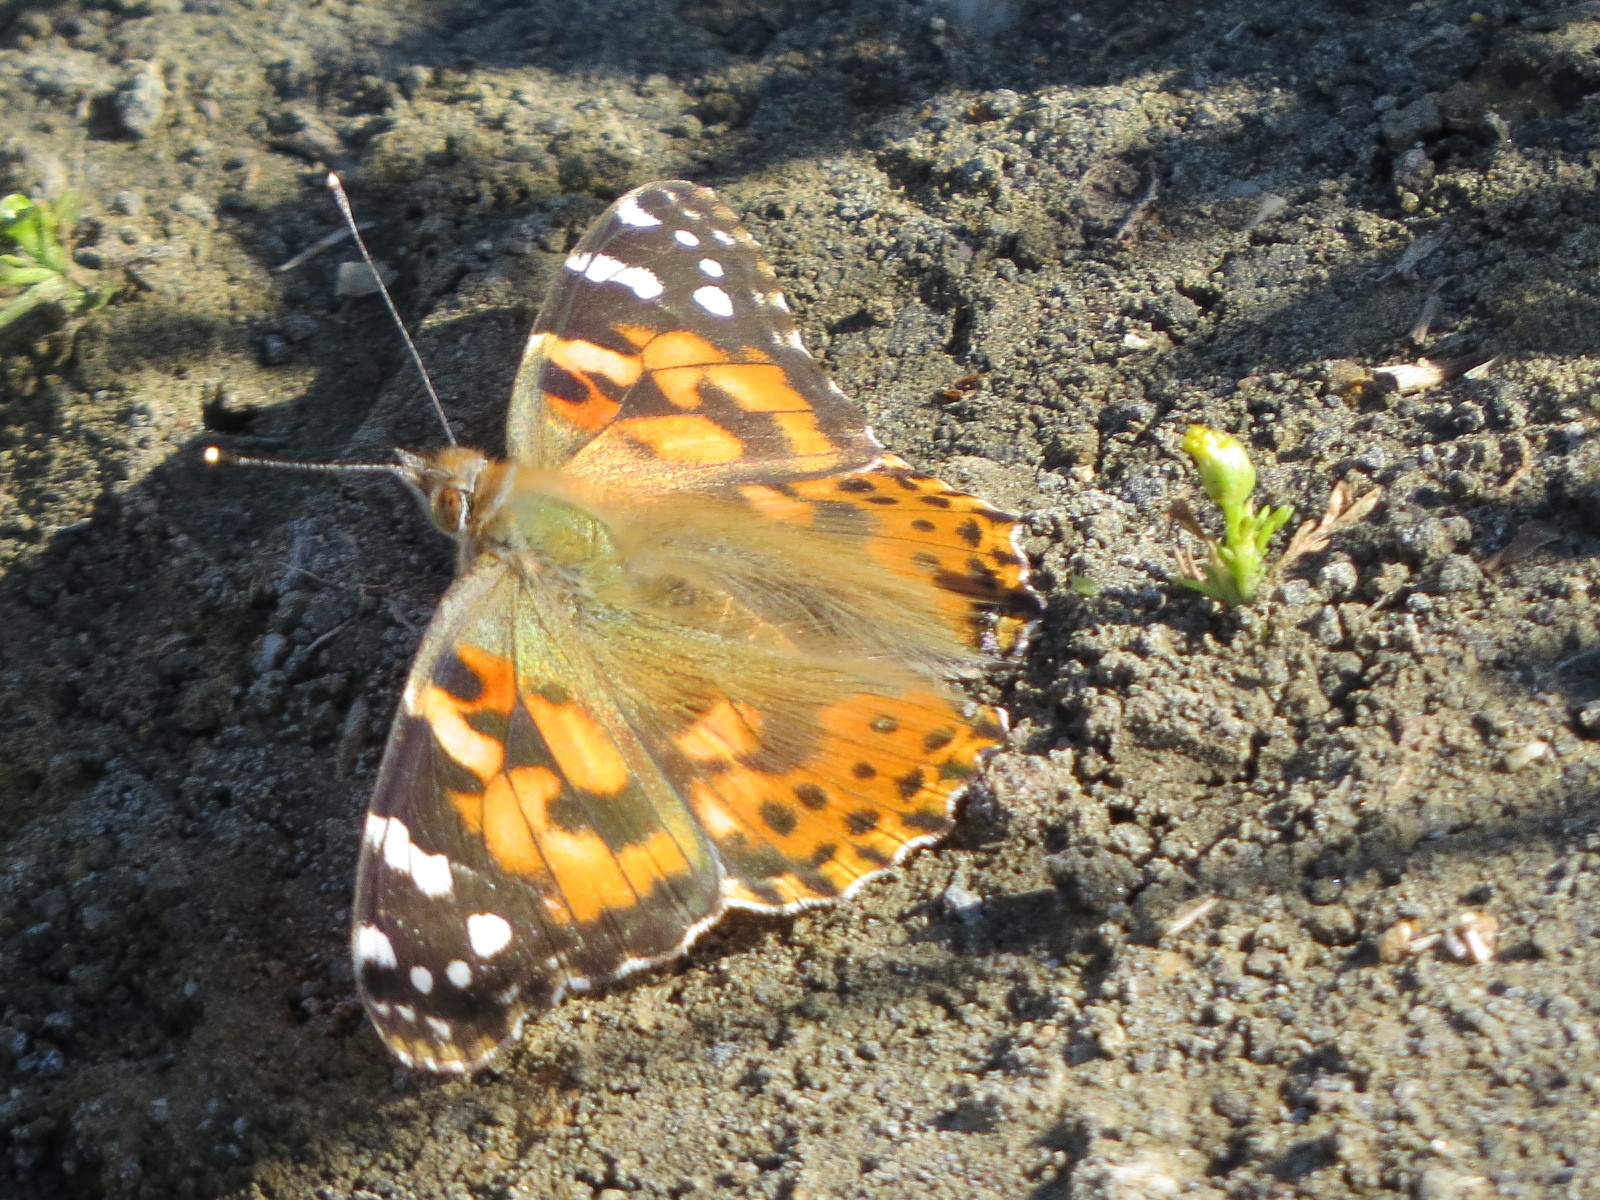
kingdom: Animalia
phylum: Arthropoda
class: Insecta
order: Lepidoptera
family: Nymphalidae
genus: Vanessa
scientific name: Vanessa cardui
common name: Painted lady
